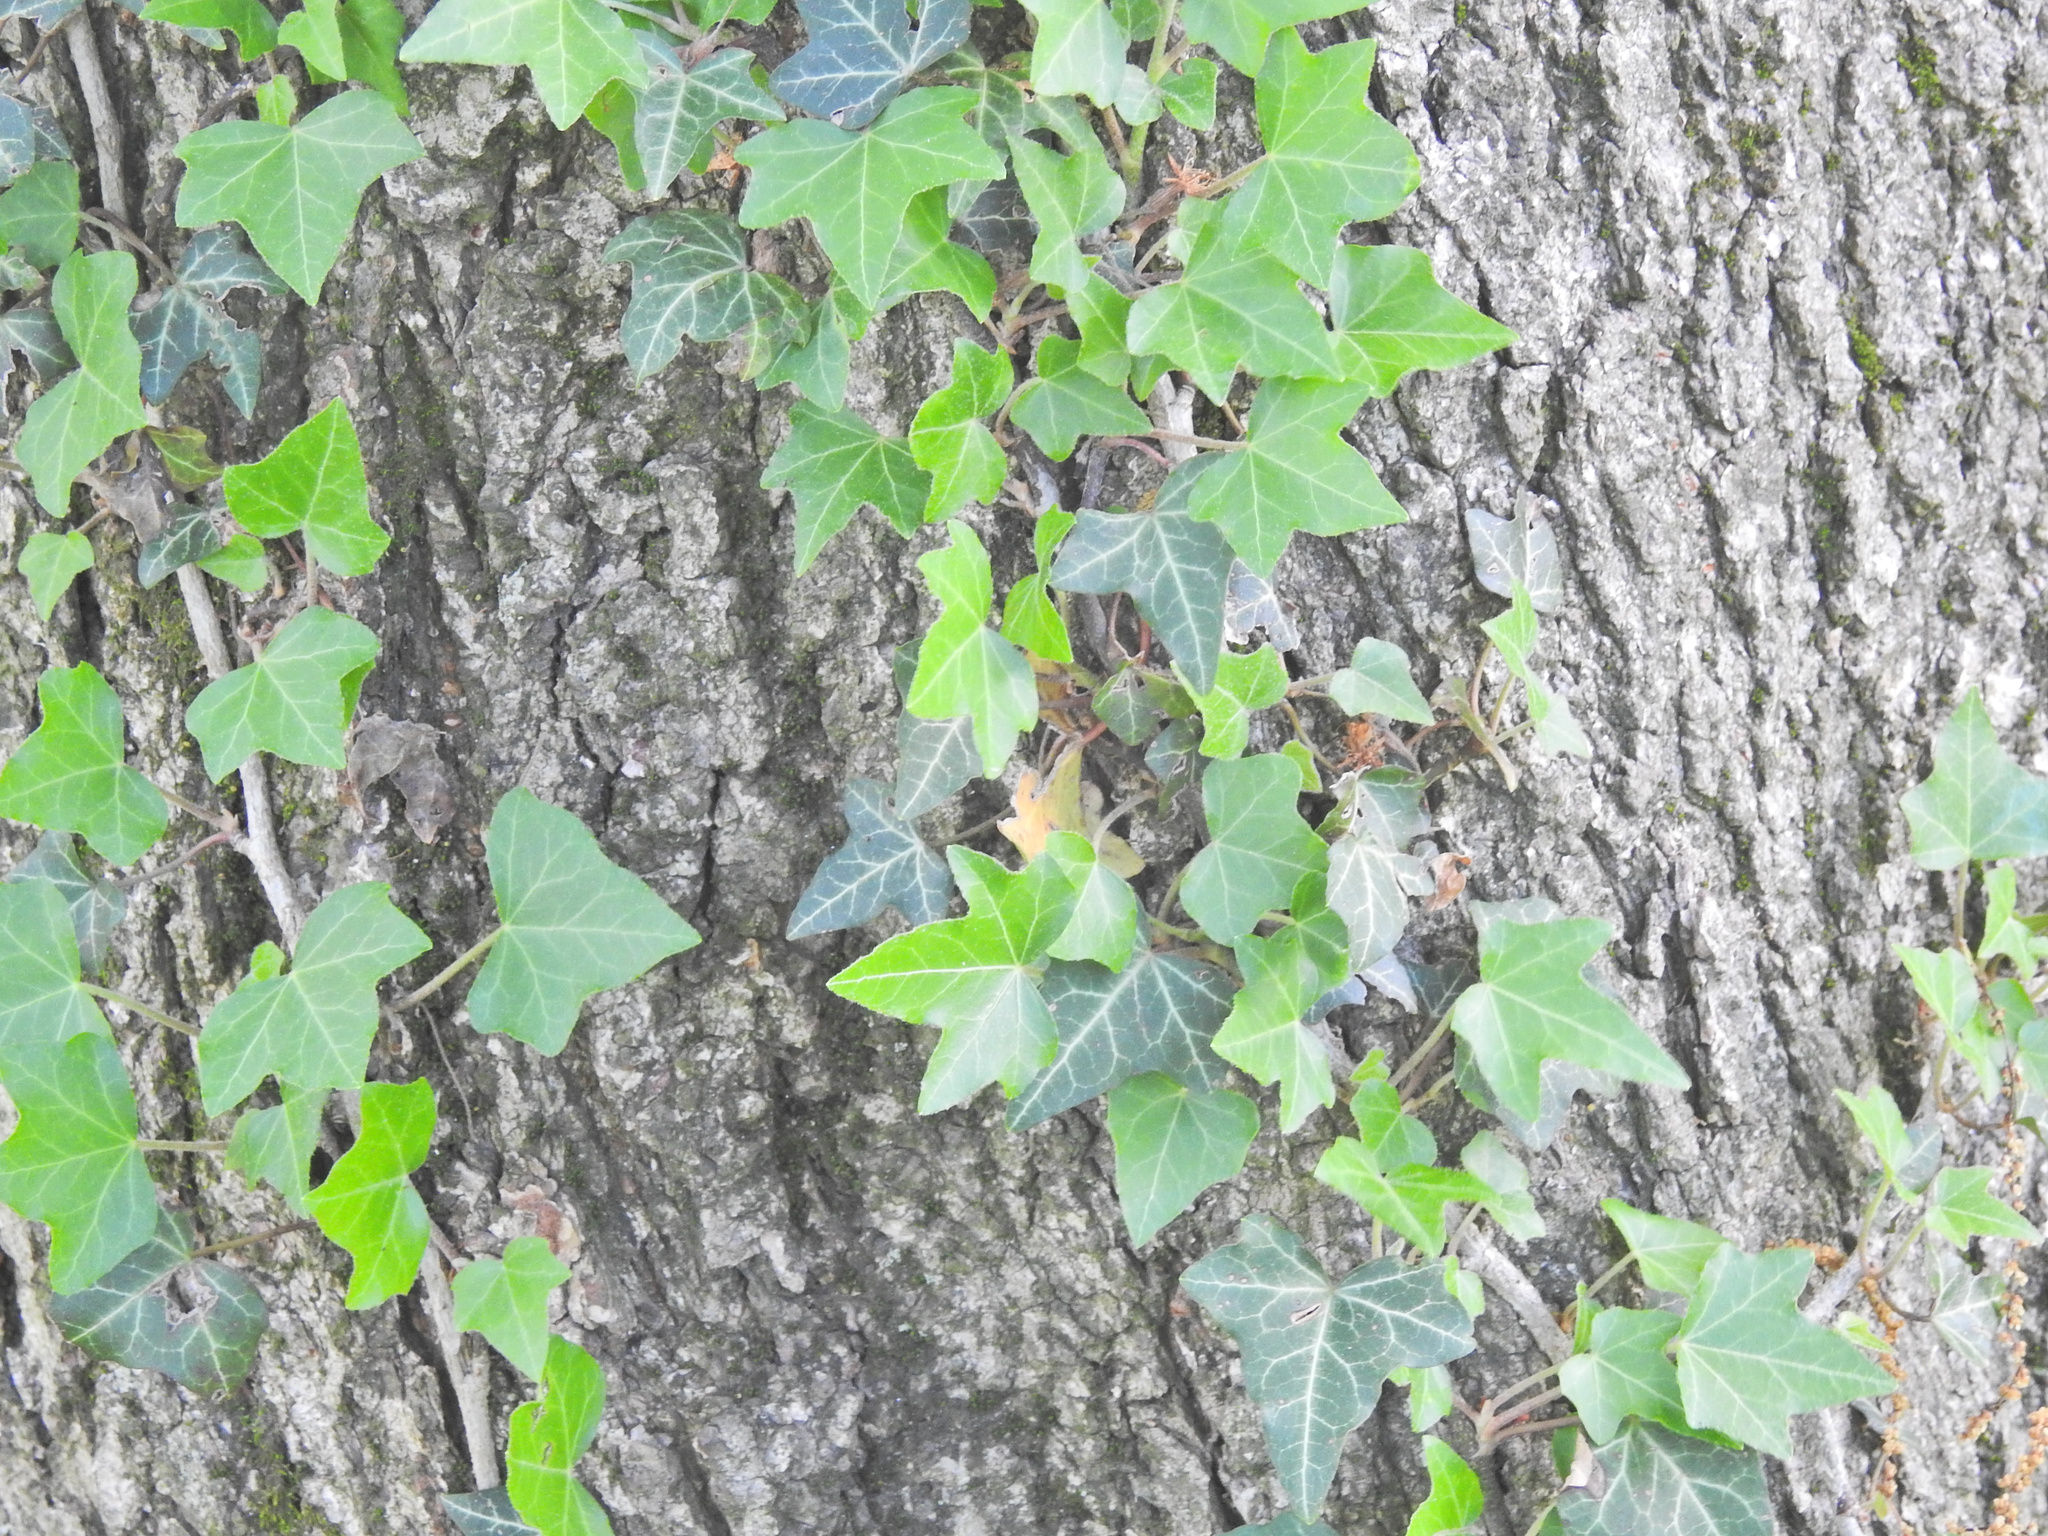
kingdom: Plantae
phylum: Tracheophyta
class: Magnoliopsida
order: Apiales
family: Araliaceae
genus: Hedera
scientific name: Hedera helix
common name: Ivy
